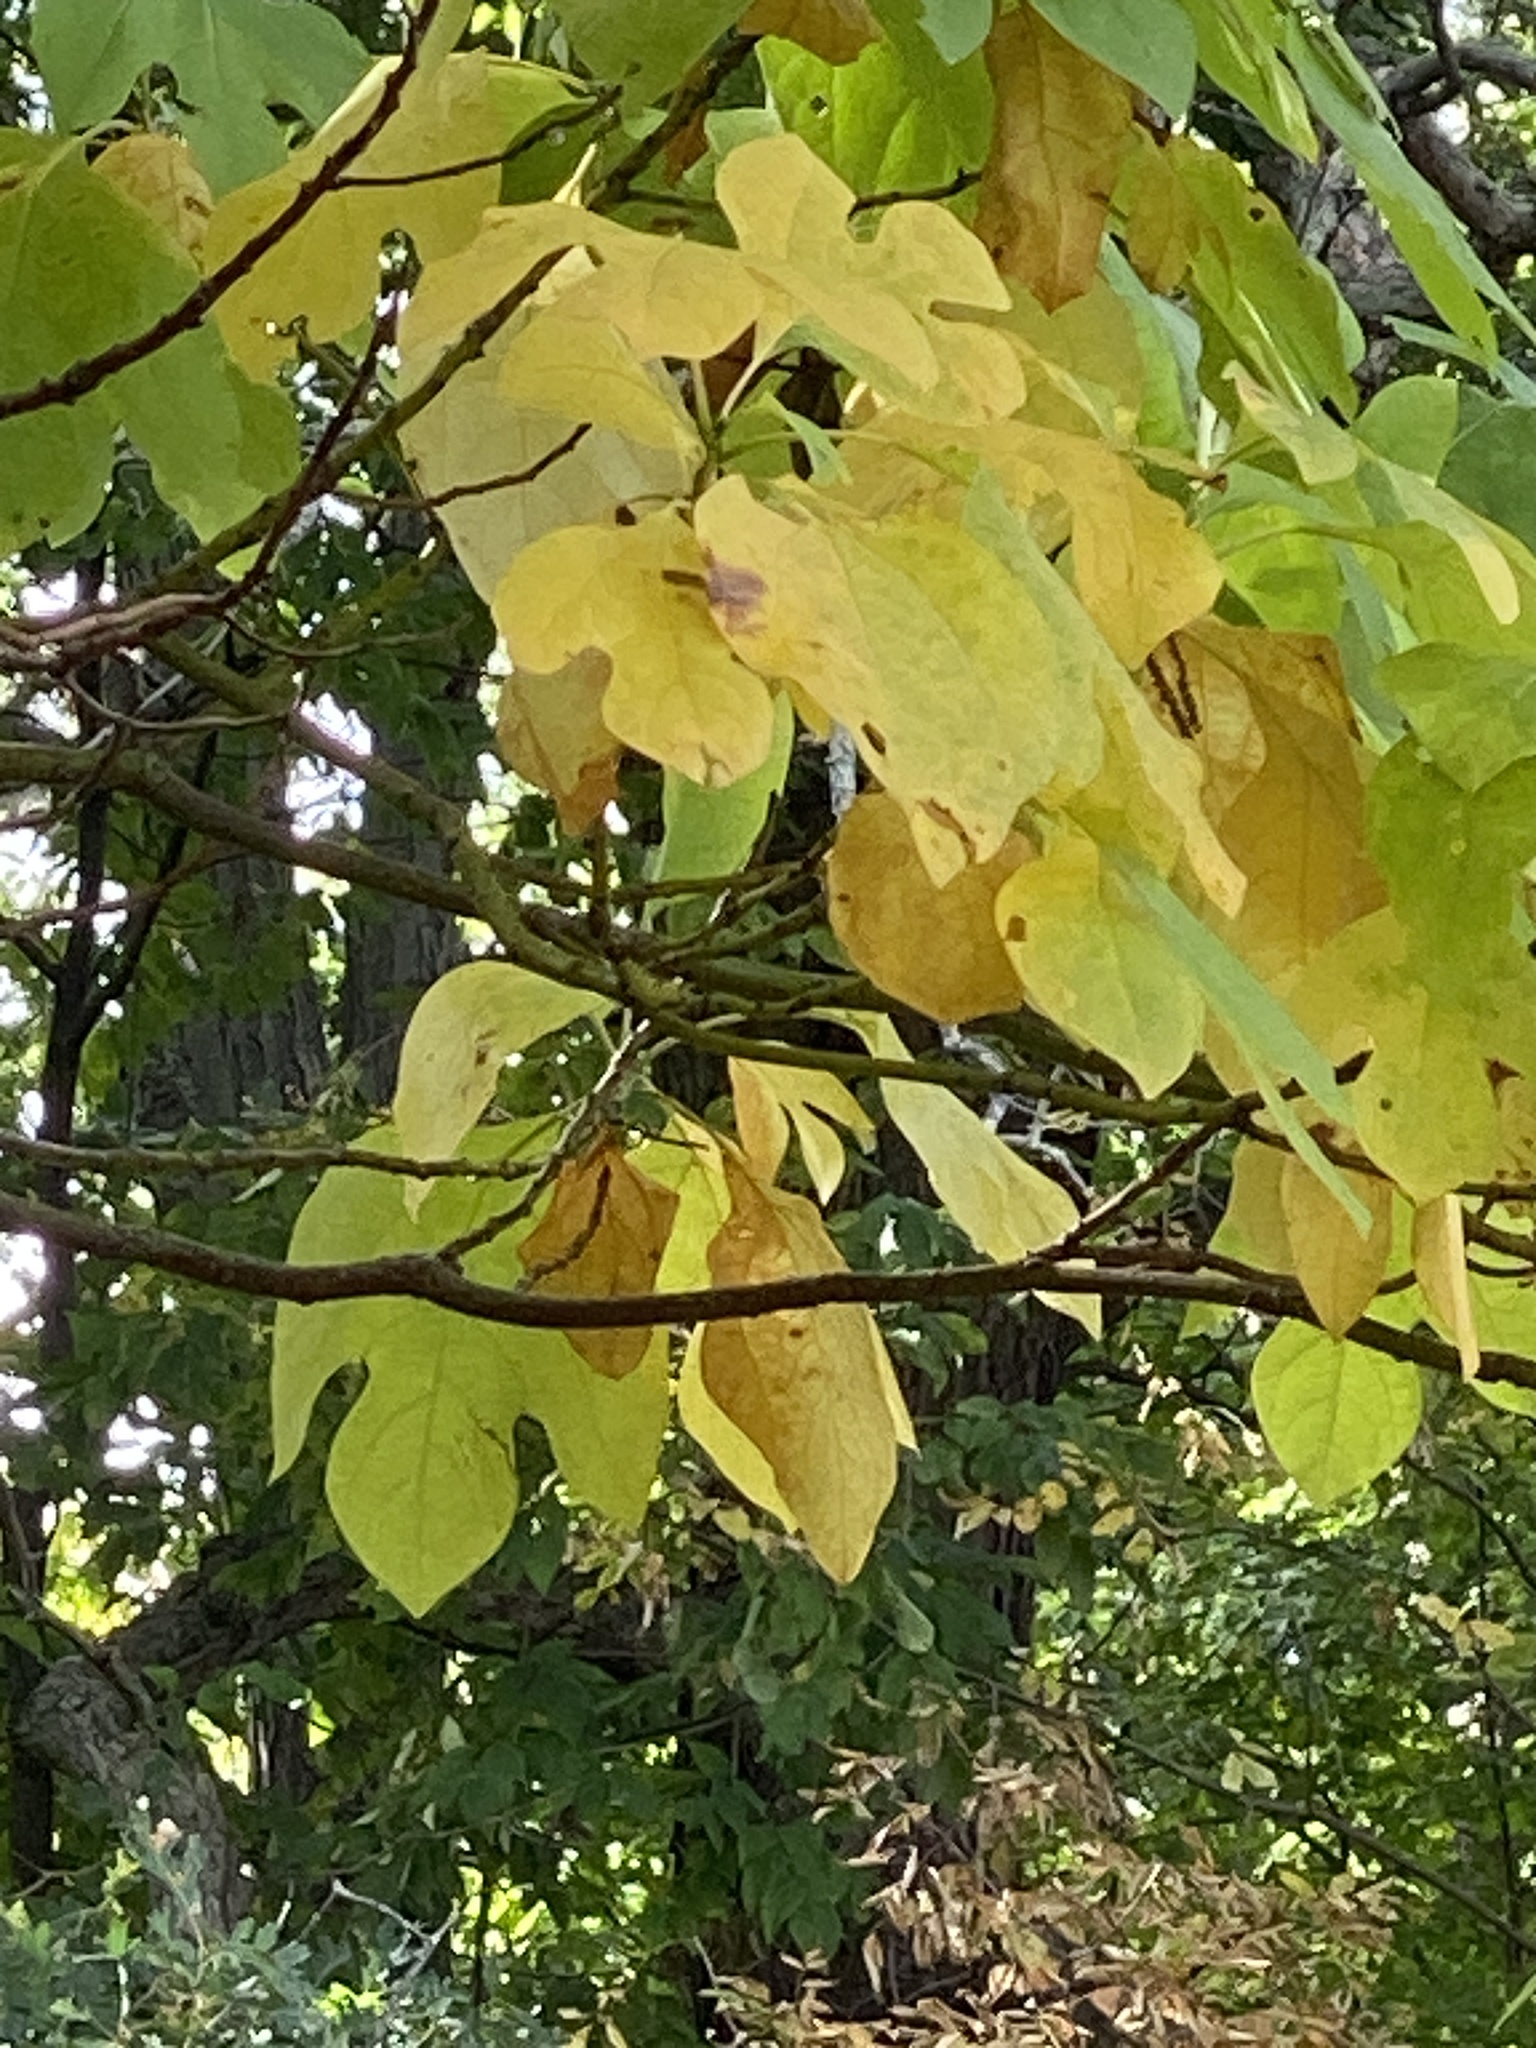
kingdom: Plantae
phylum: Tracheophyta
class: Magnoliopsida
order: Laurales
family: Lauraceae
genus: Sassafras
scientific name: Sassafras albidum
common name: Sassafras
